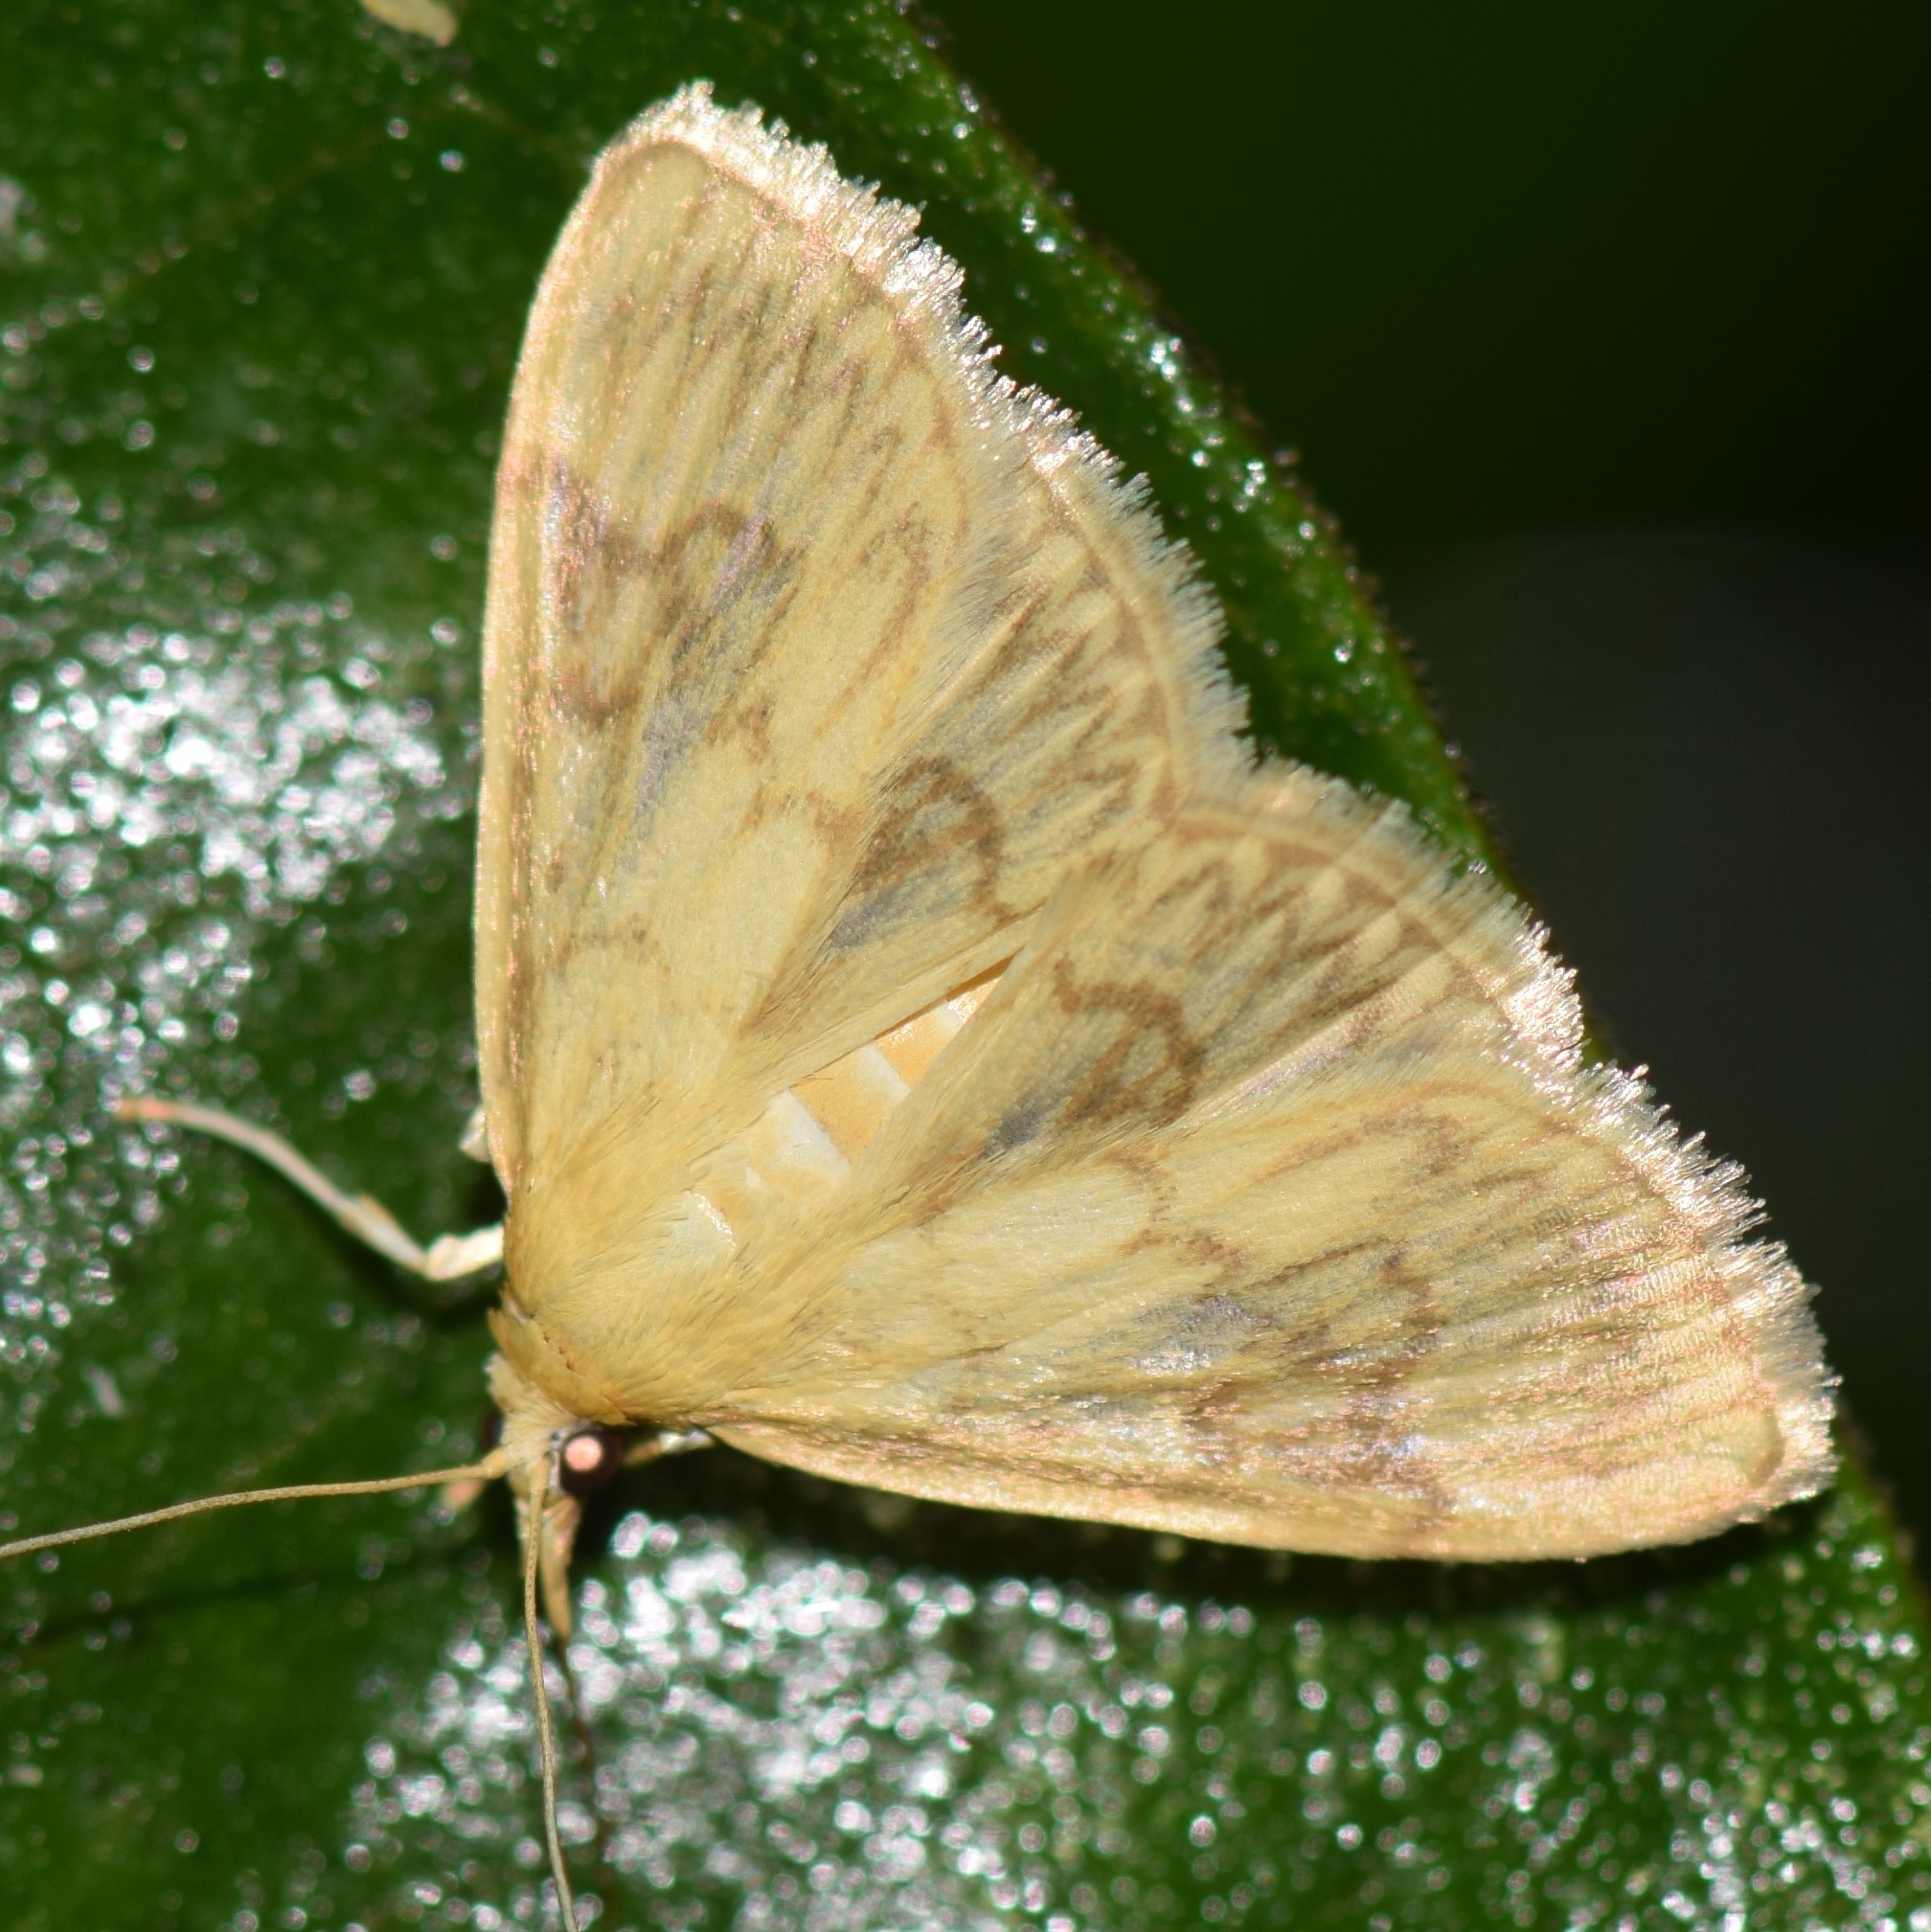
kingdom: Animalia
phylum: Arthropoda
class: Insecta
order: Lepidoptera
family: Crambidae
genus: Crocidophora
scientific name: Crocidophora serratissimalis
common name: Saw-toothed crocidophora moth
